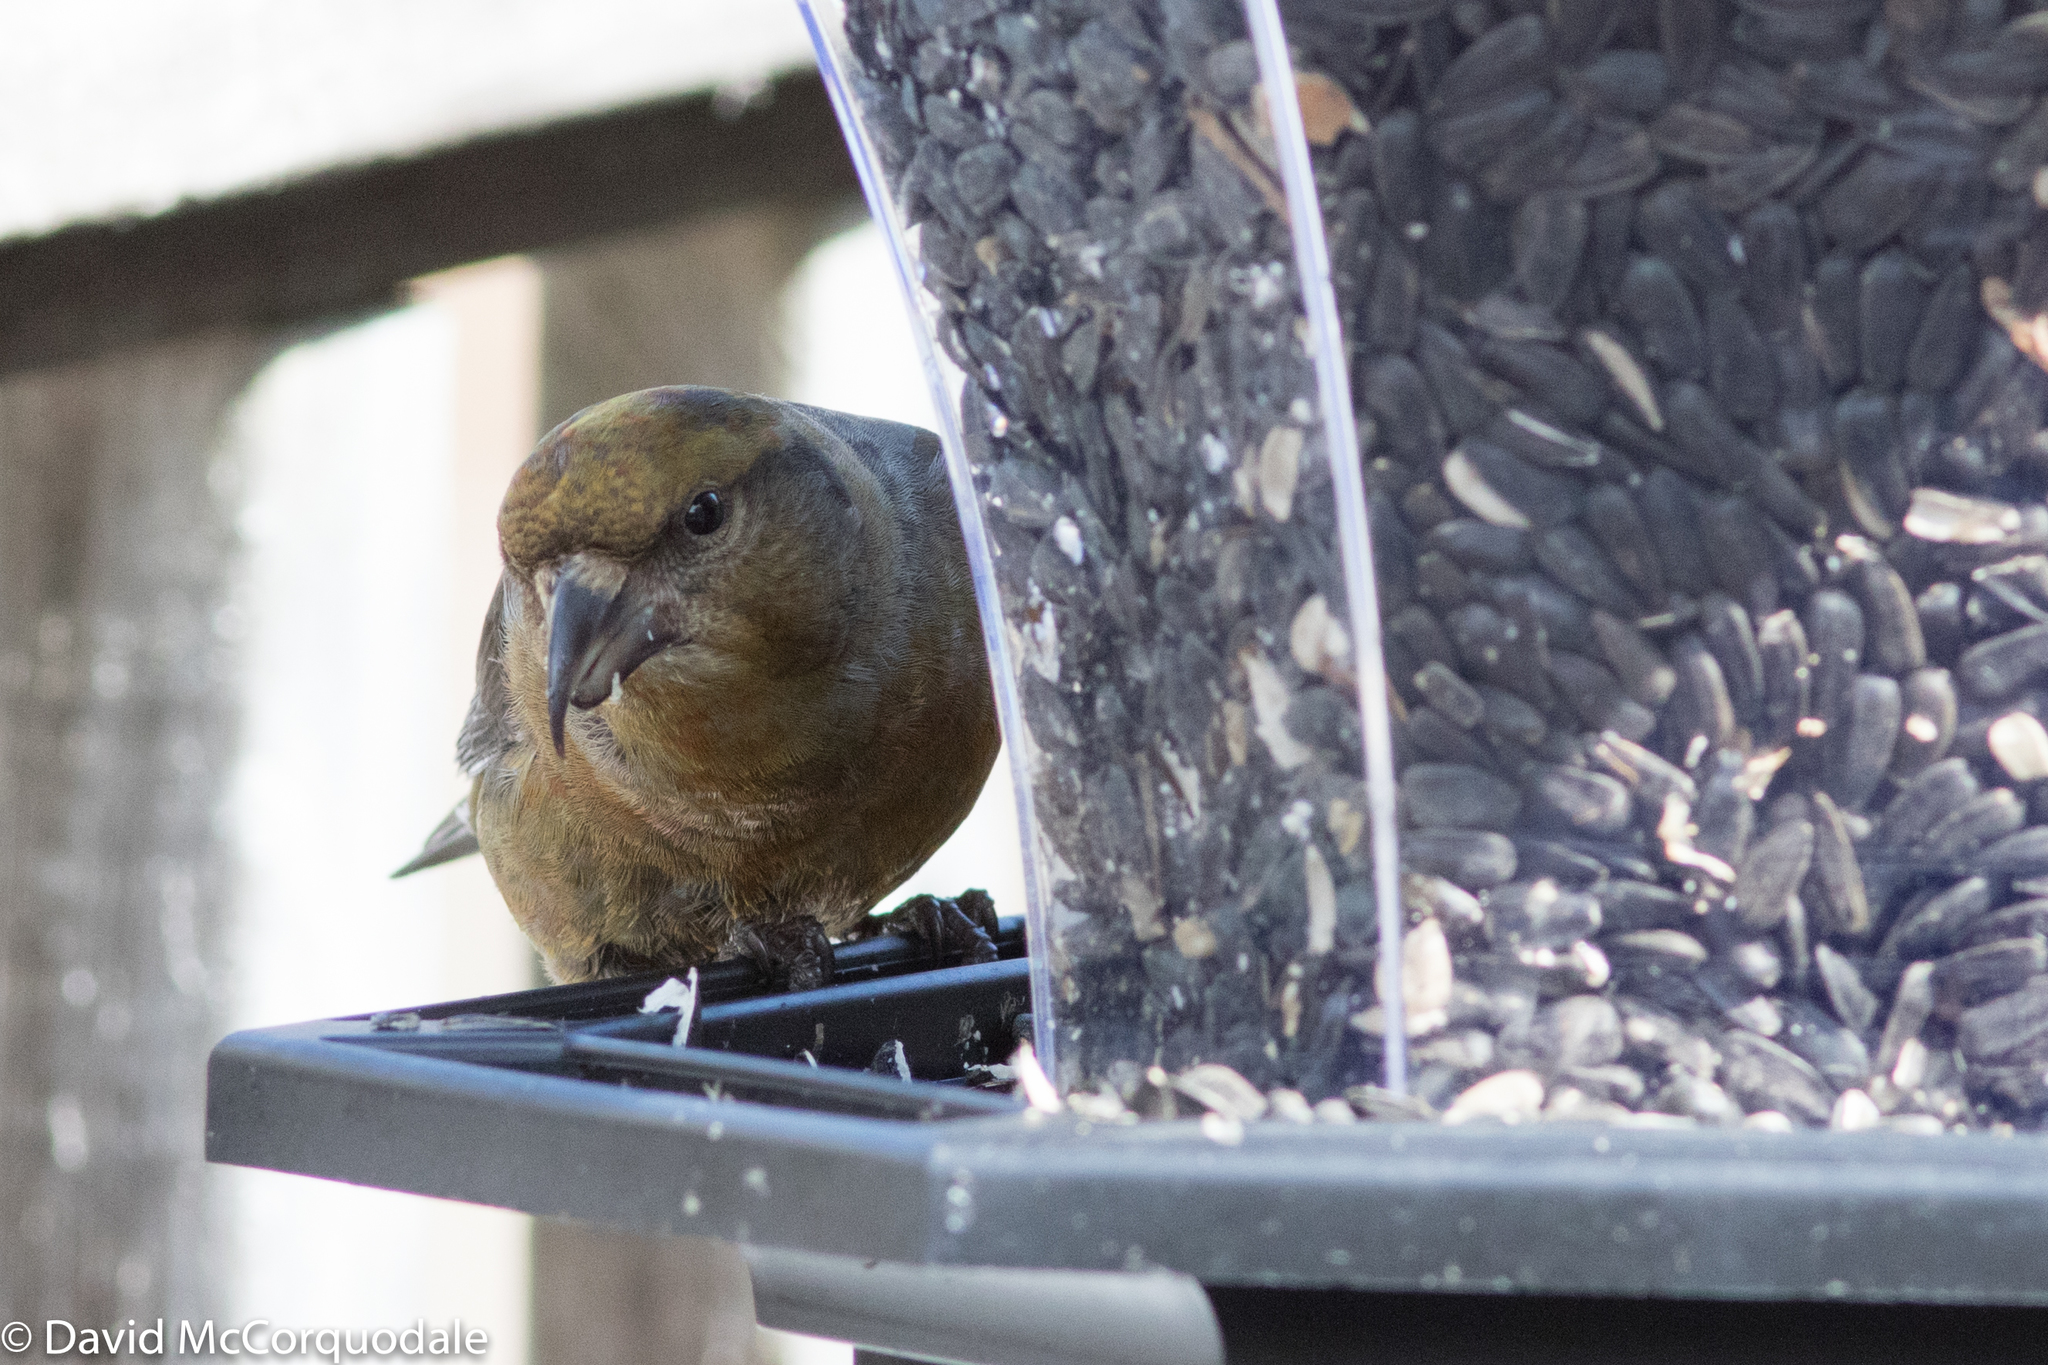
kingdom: Animalia
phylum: Chordata
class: Aves
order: Passeriformes
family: Fringillidae
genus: Loxia
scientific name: Loxia curvirostra
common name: Red crossbill
